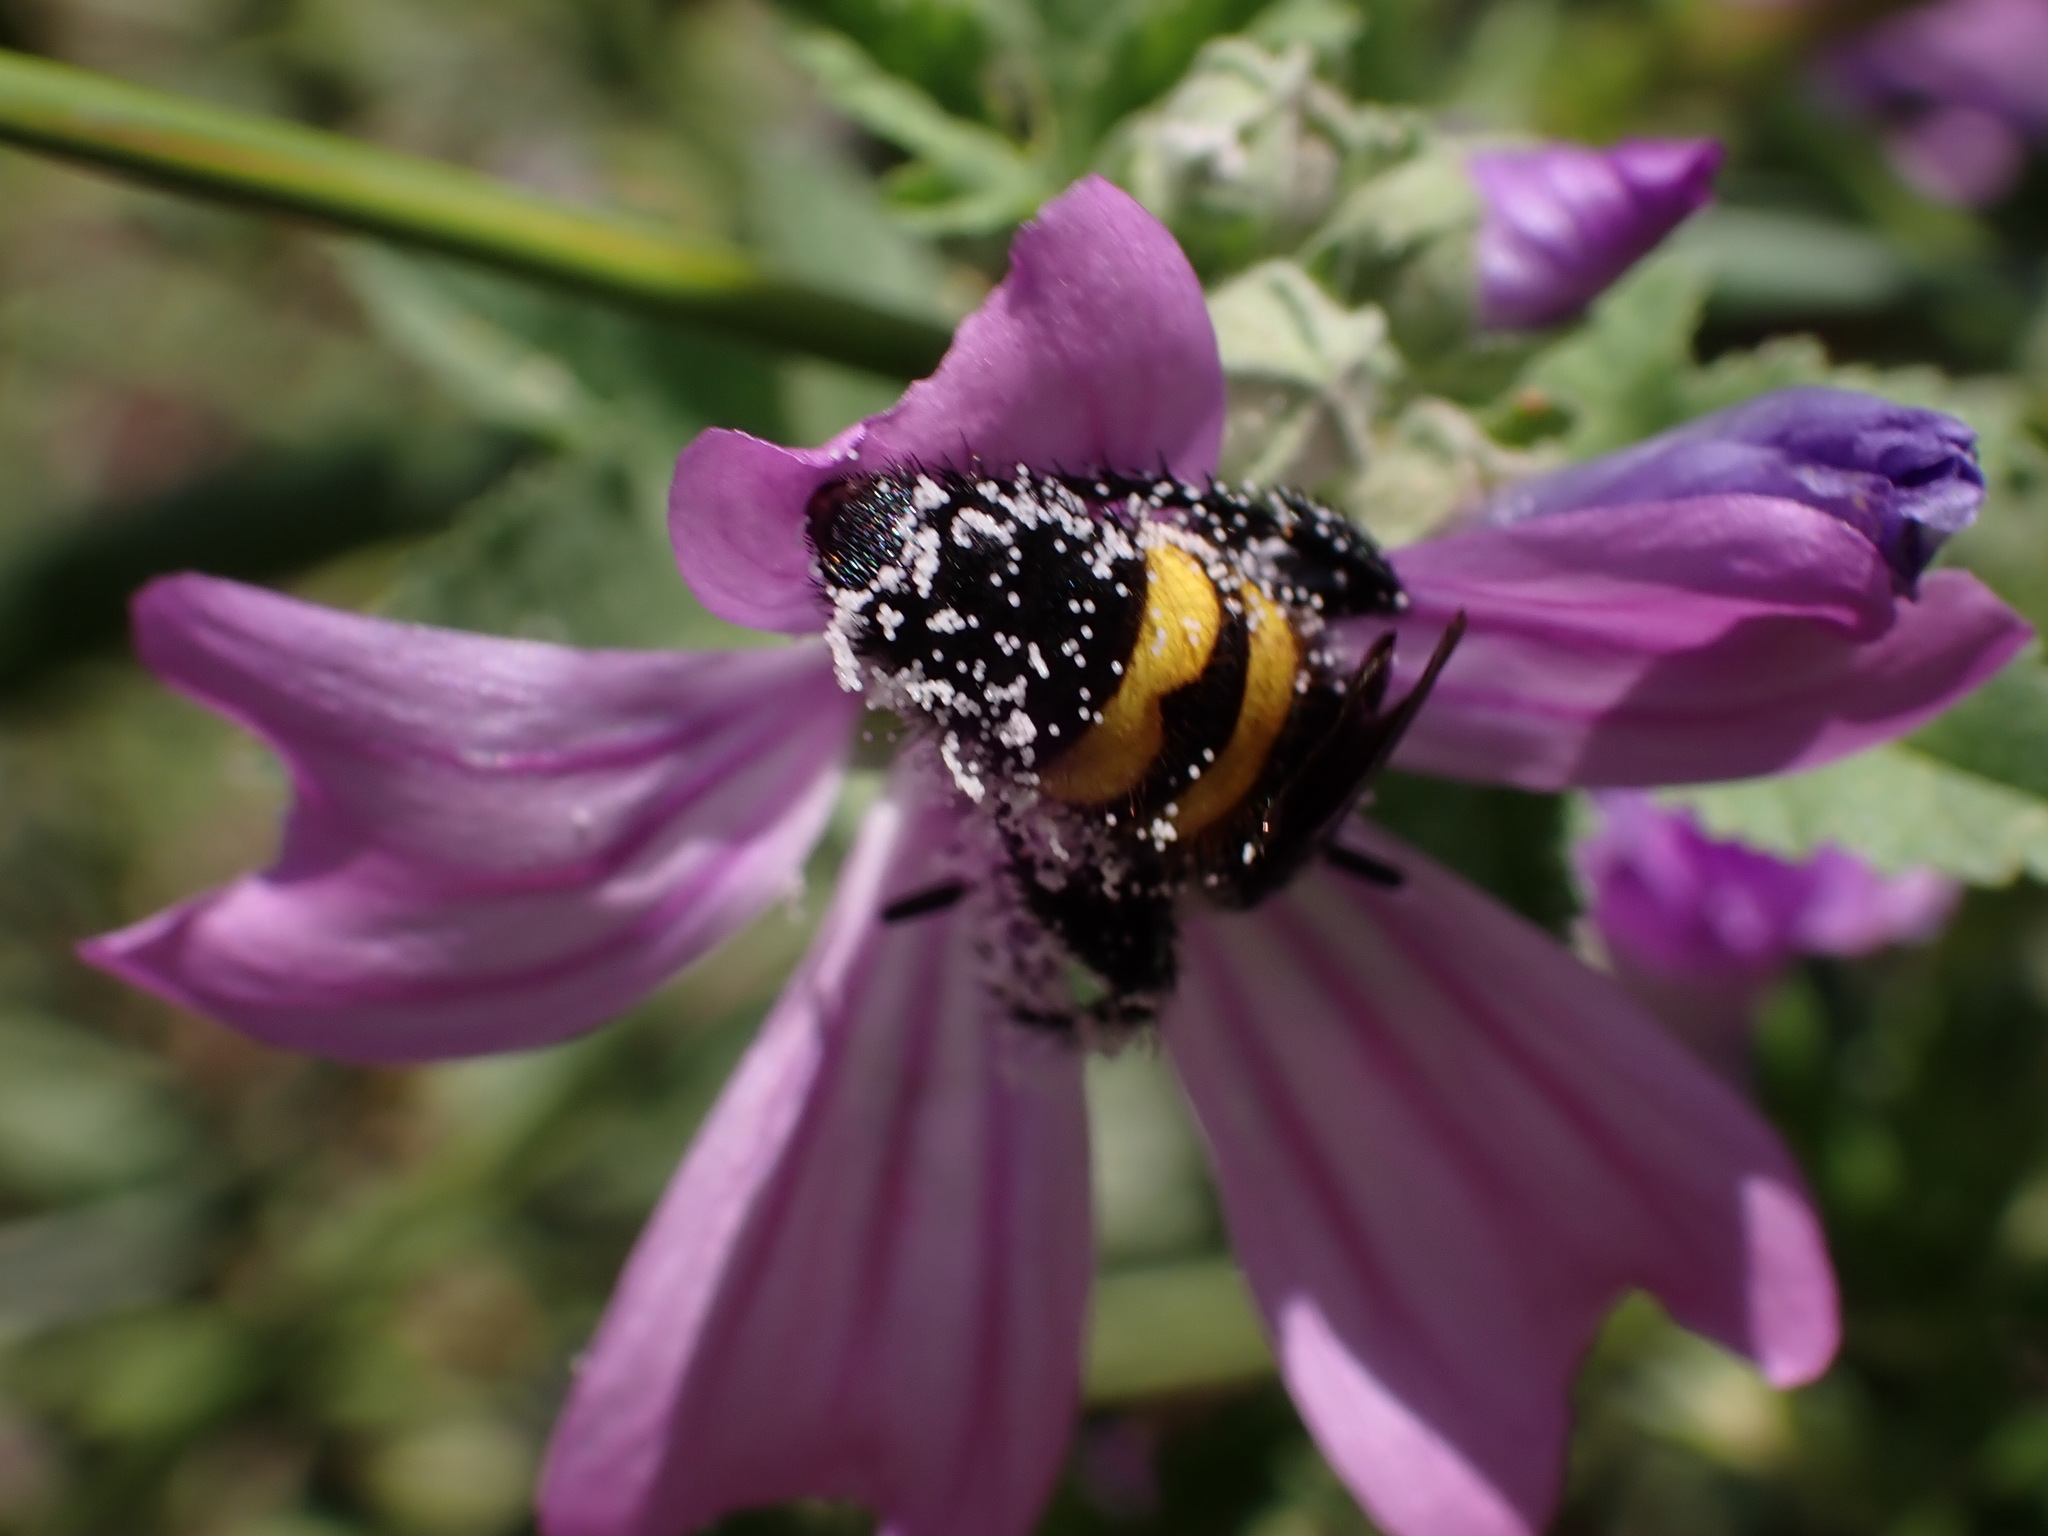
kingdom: Animalia
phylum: Arthropoda
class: Insecta
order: Hymenoptera
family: Scoliidae
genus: Scolia
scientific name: Scolia hirta
